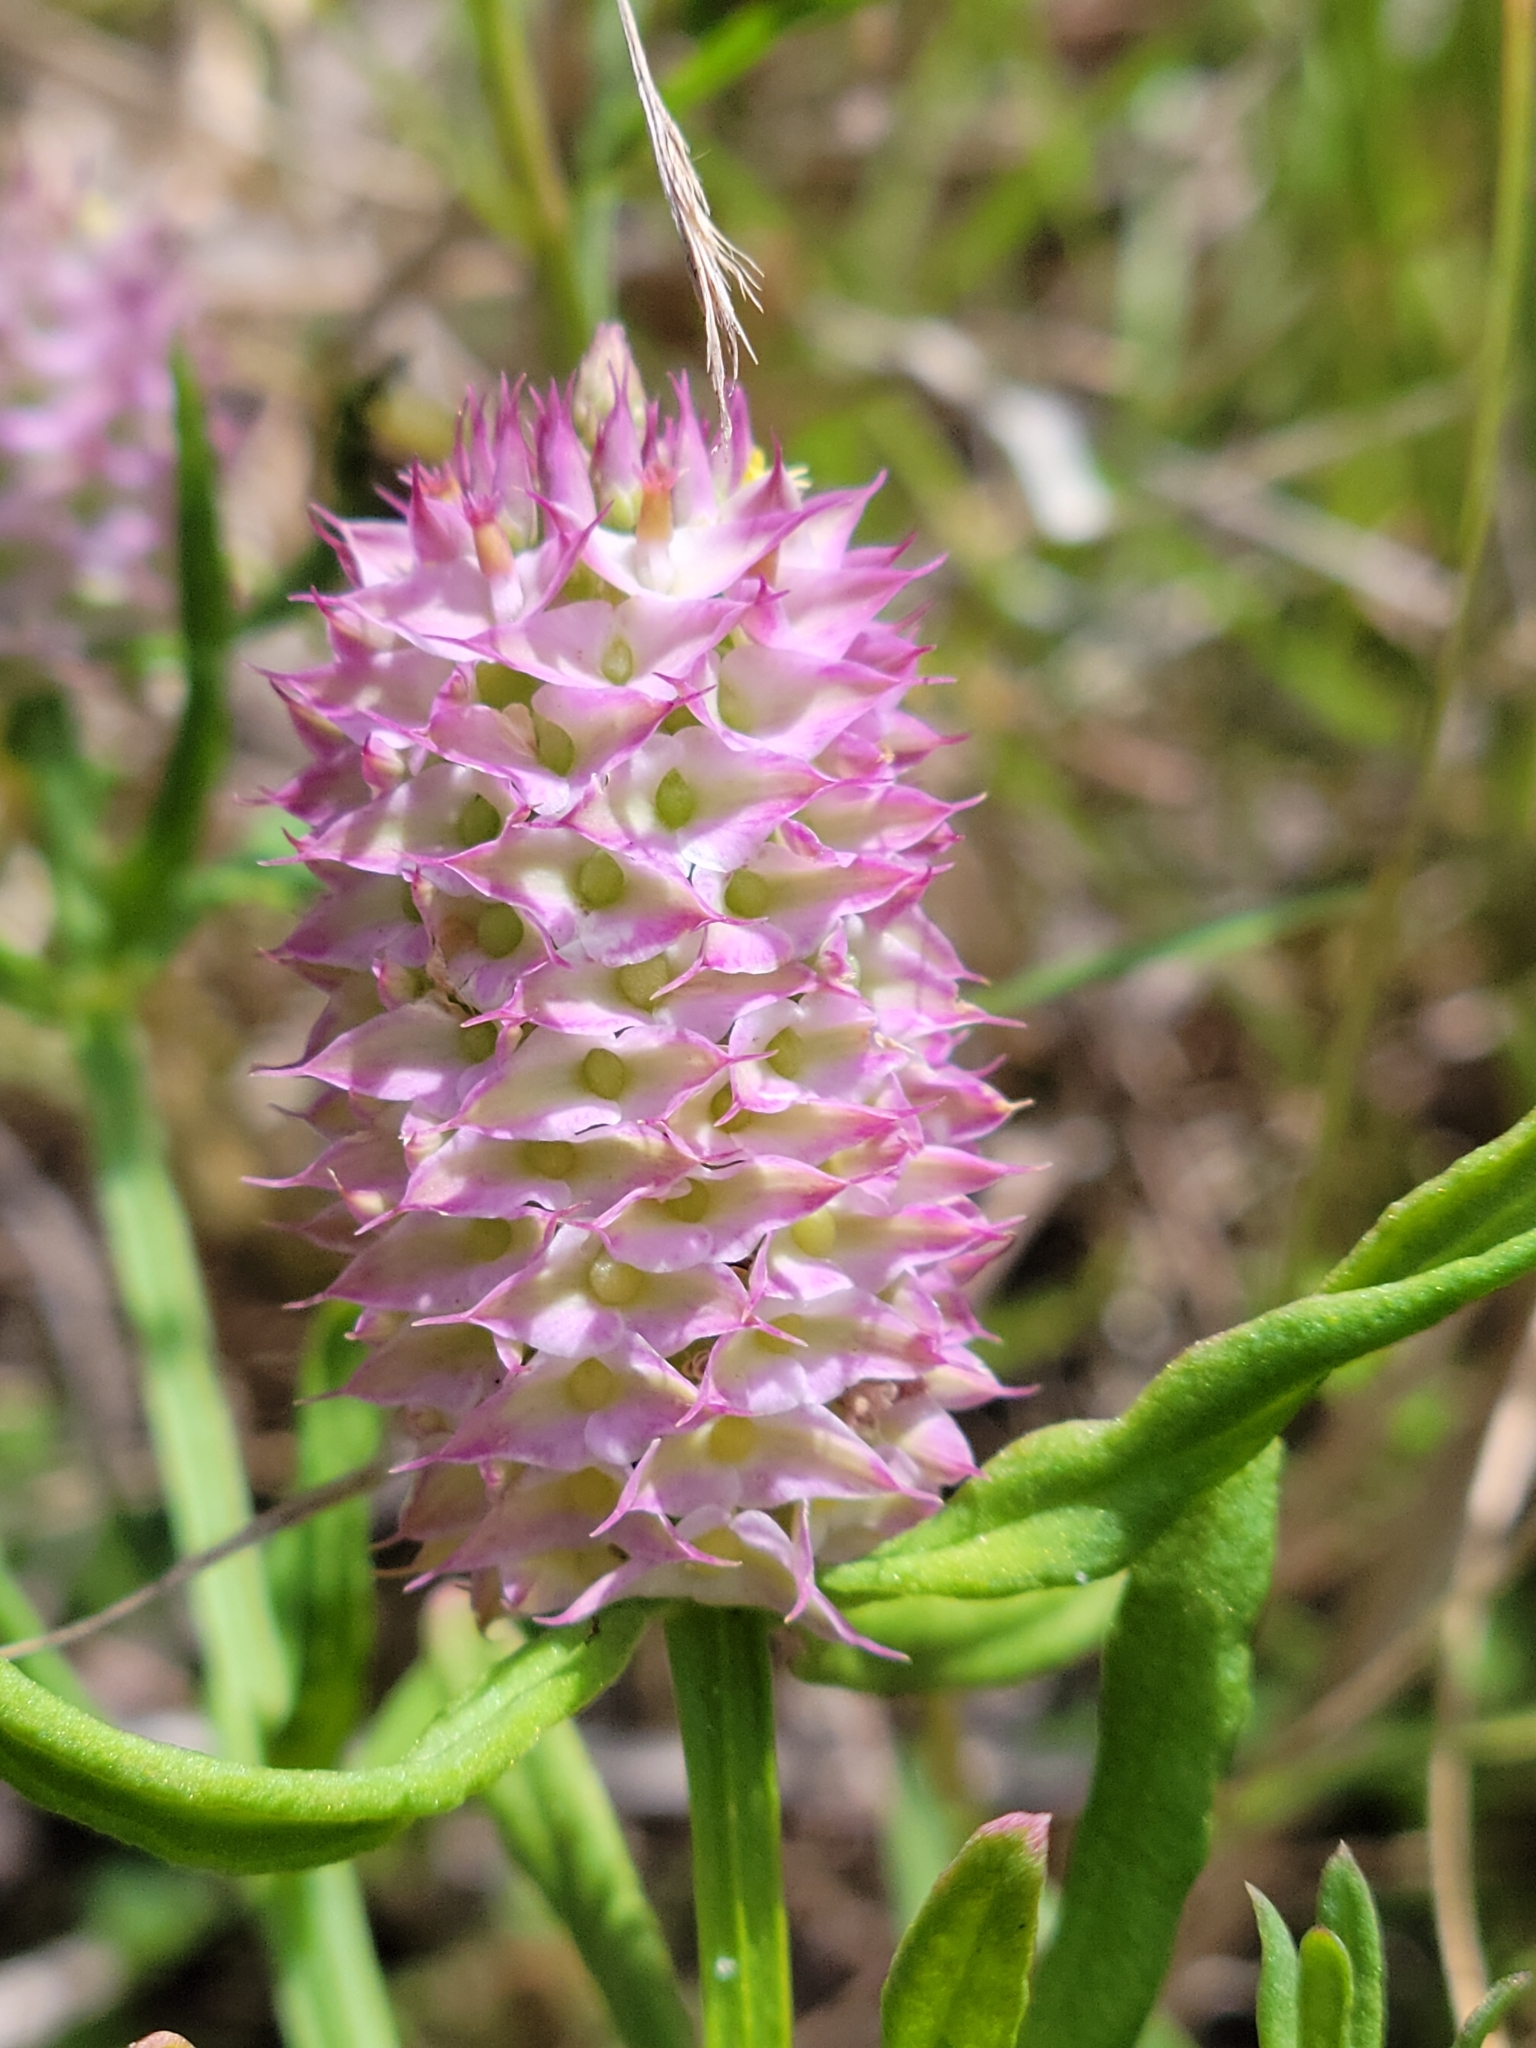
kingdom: Plantae
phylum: Tracheophyta
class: Magnoliopsida
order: Fabales
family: Polygalaceae
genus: Polygala
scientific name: Polygala cruciata
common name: Drumheads
